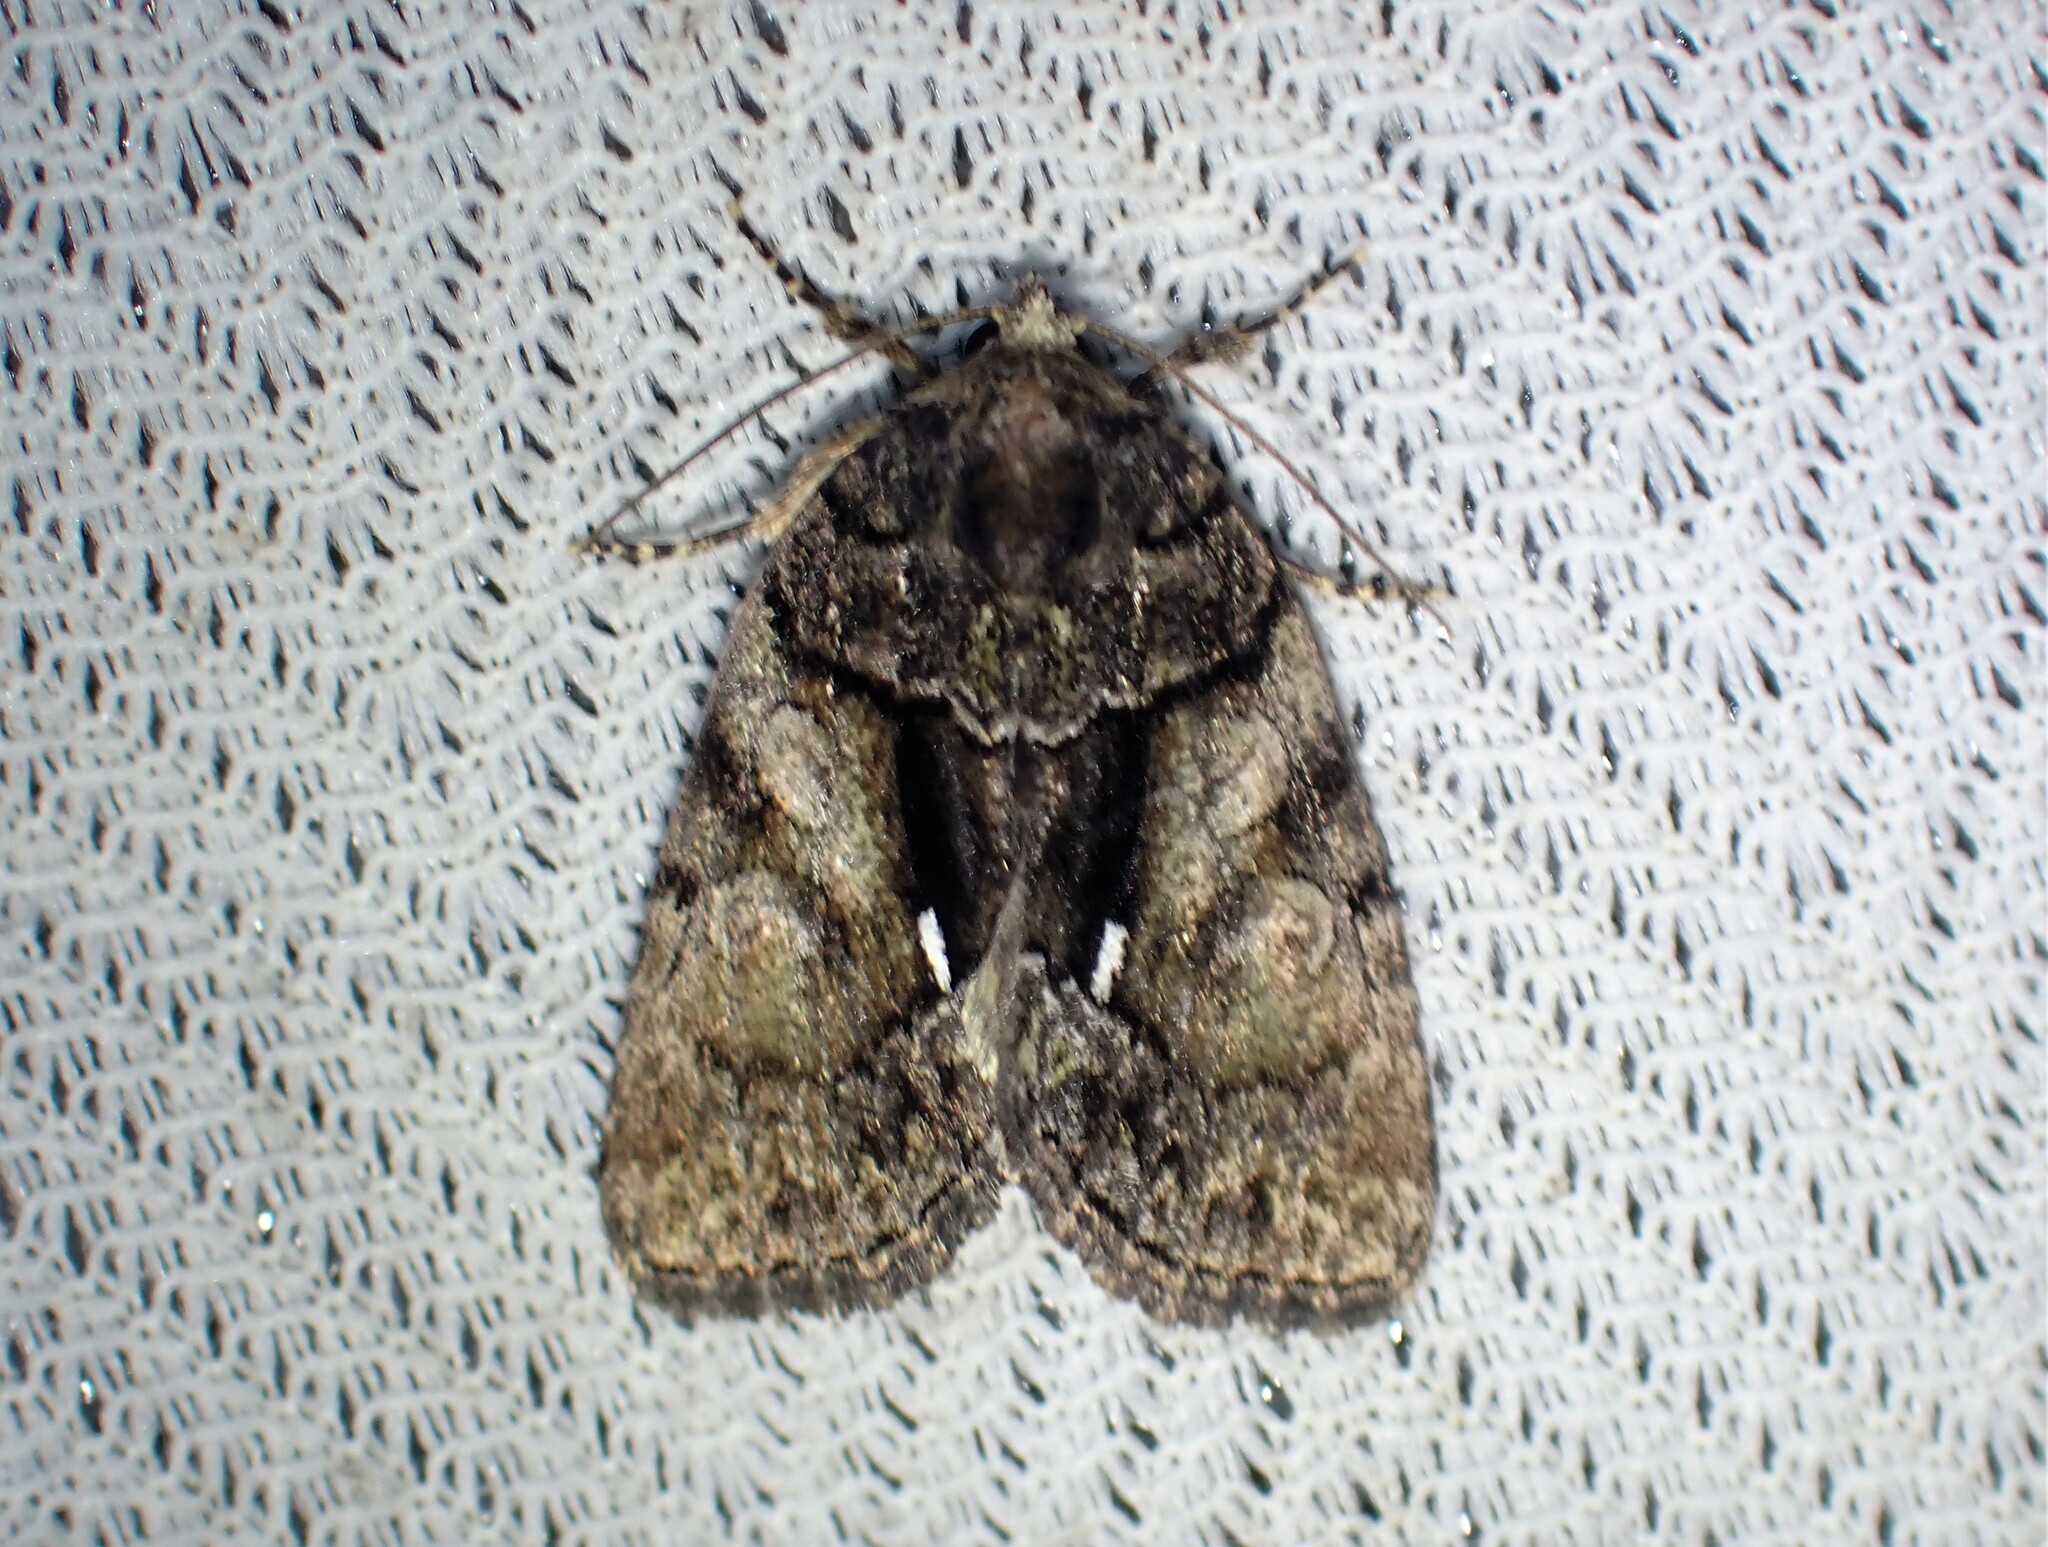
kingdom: Animalia
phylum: Arthropoda
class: Insecta
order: Lepidoptera
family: Noctuidae
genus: Chytonix
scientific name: Chytonix palliatricula
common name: Cloaked marvel
